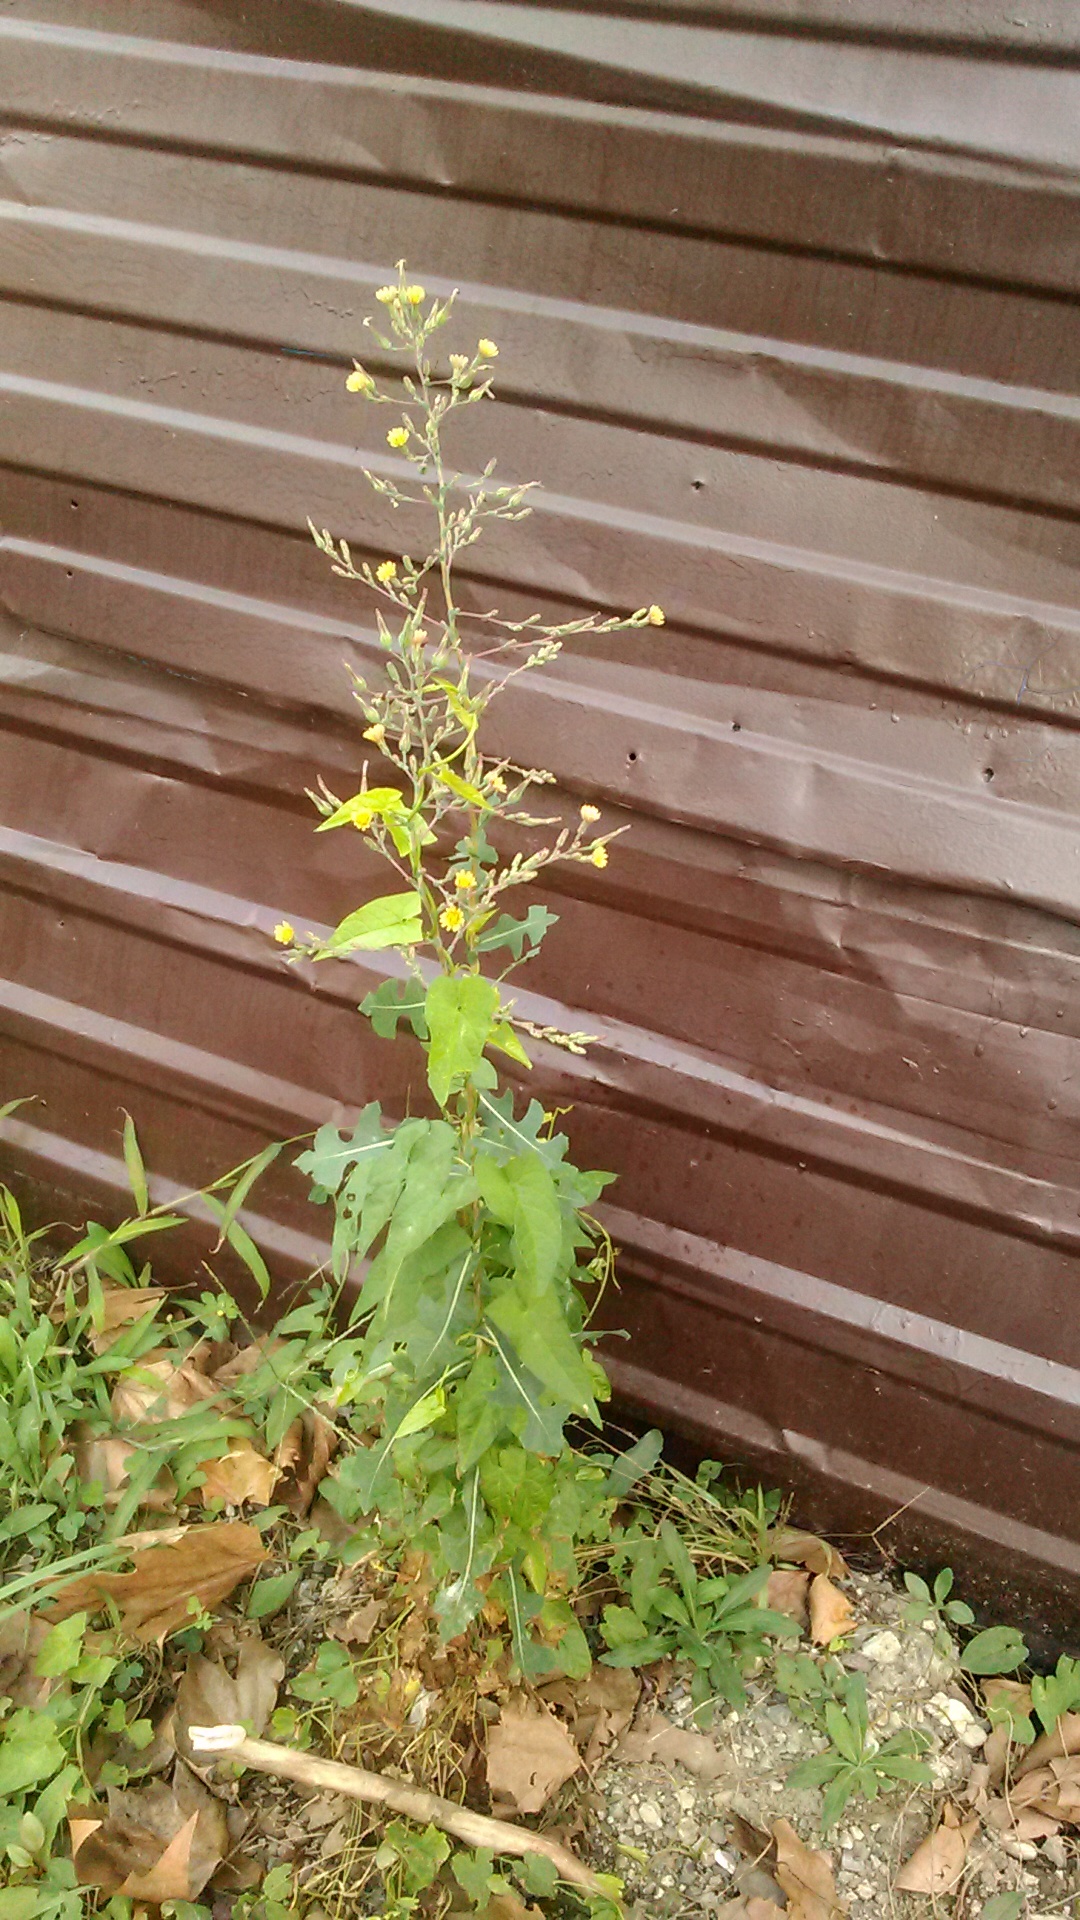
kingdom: Plantae
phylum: Tracheophyta
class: Magnoliopsida
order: Asterales
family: Asteraceae
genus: Lactuca
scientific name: Lactuca serriola
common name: Prickly lettuce
